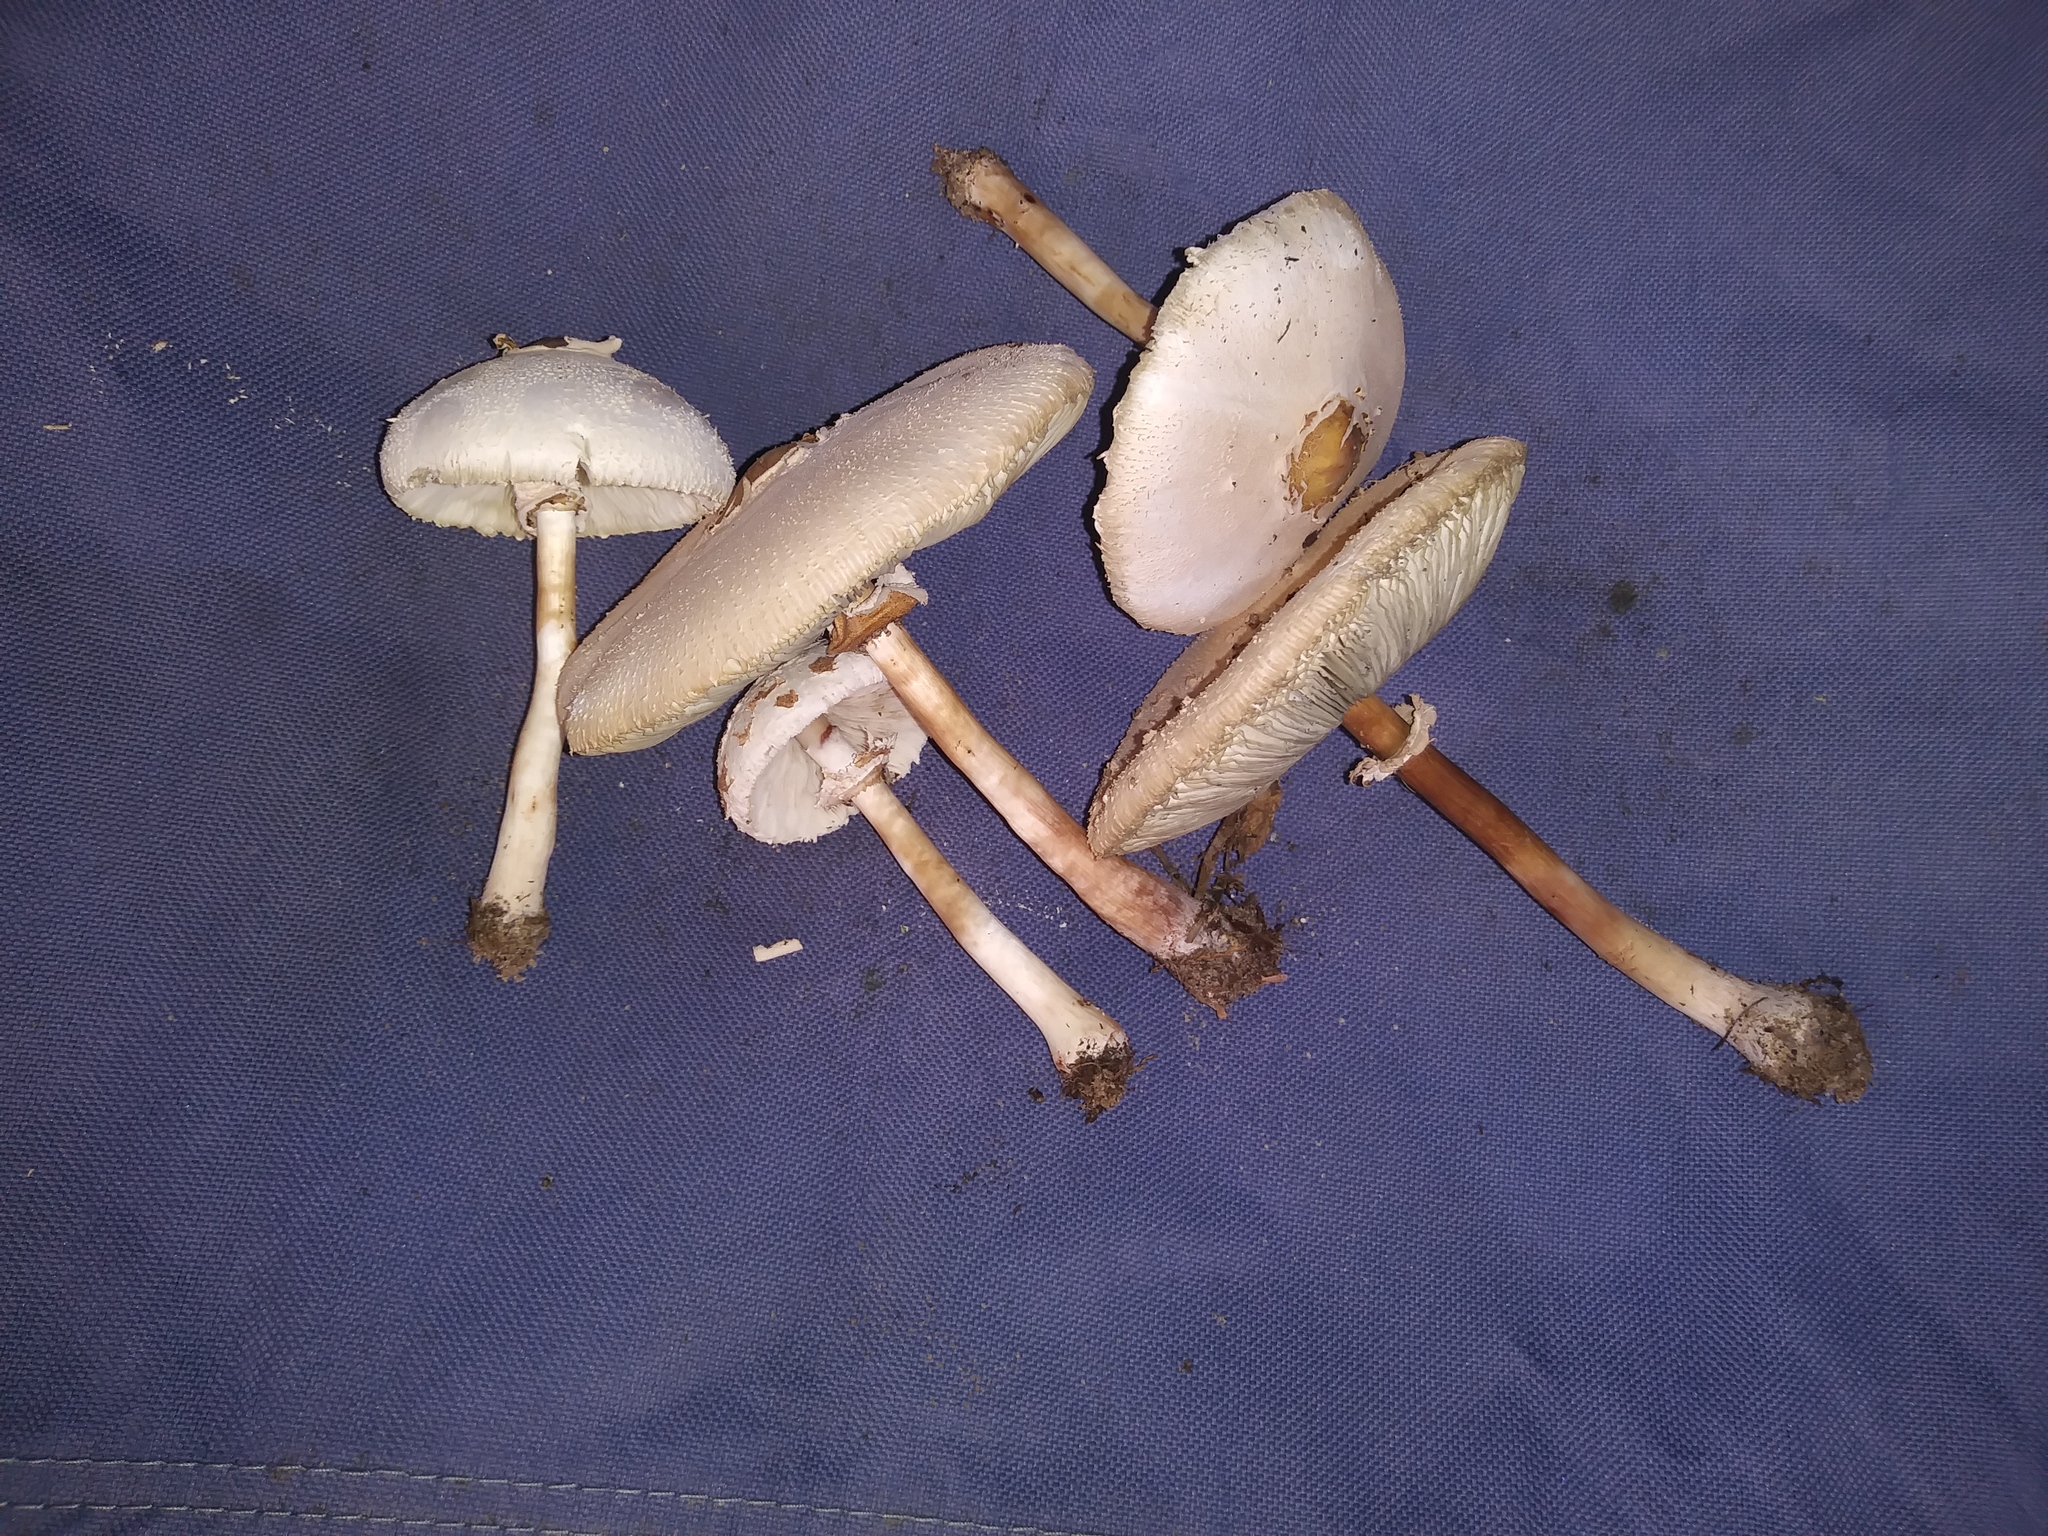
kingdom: Fungi
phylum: Basidiomycota
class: Agaricomycetes
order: Agaricales
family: Agaricaceae
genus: Chlorophyllum
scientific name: Chlorophyllum molybdites
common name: False parasol
